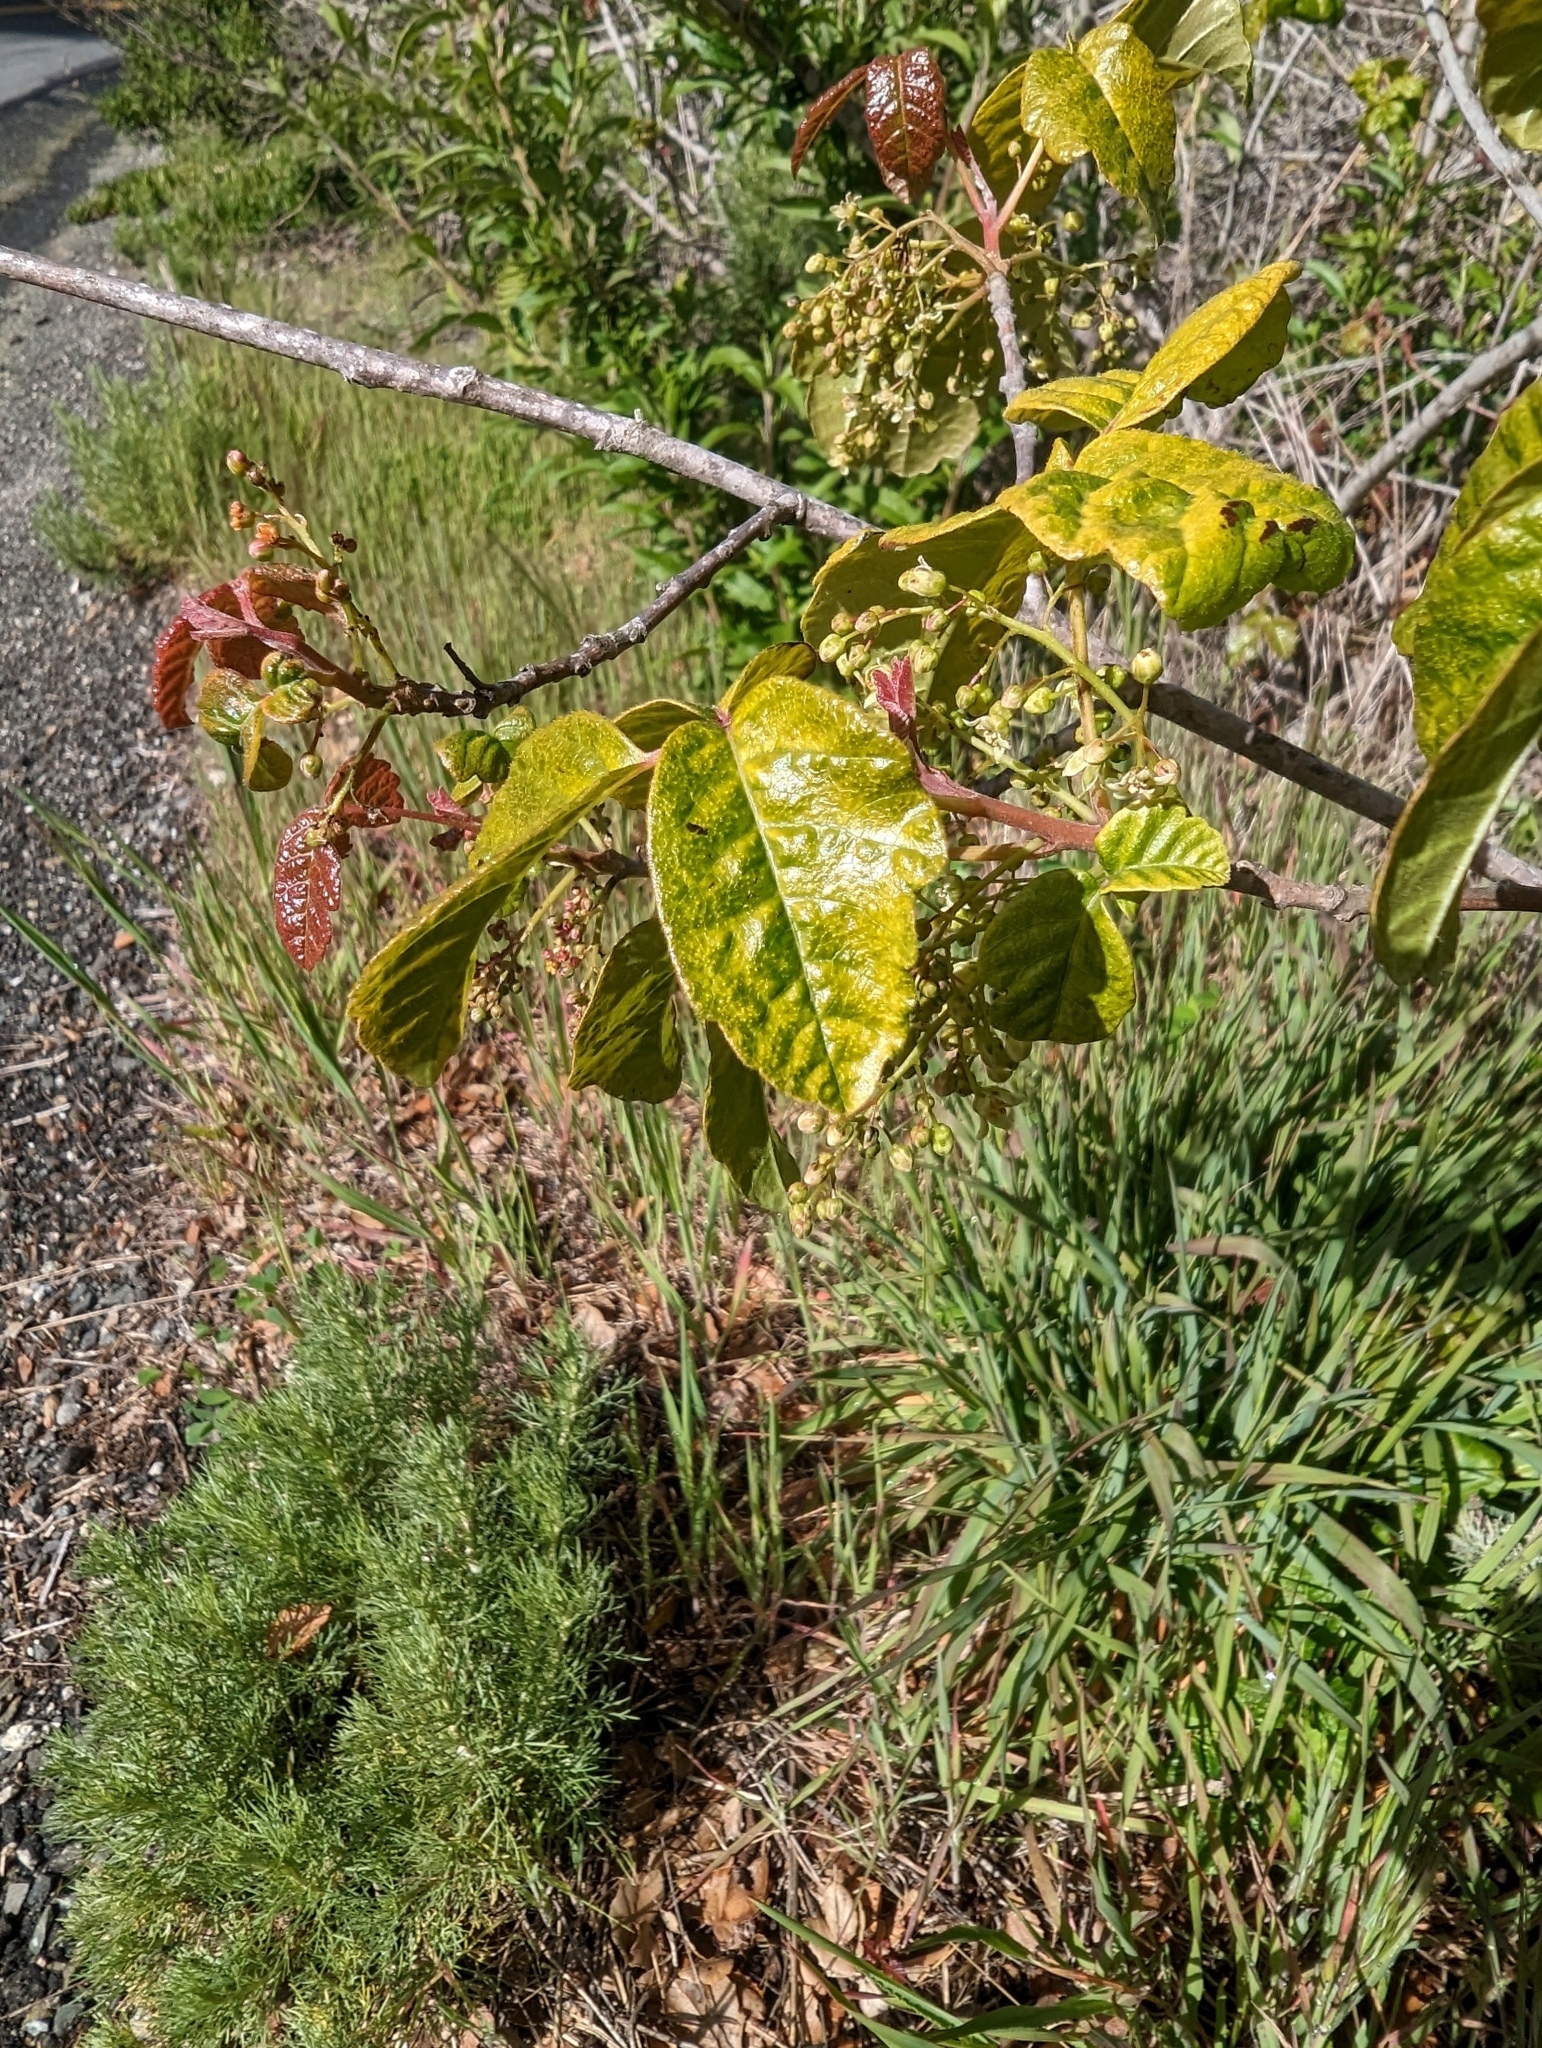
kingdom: Plantae
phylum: Tracheophyta
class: Magnoliopsida
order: Sapindales
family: Anacardiaceae
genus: Toxicodendron
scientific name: Toxicodendron diversilobum
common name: Pacific poison-oak
